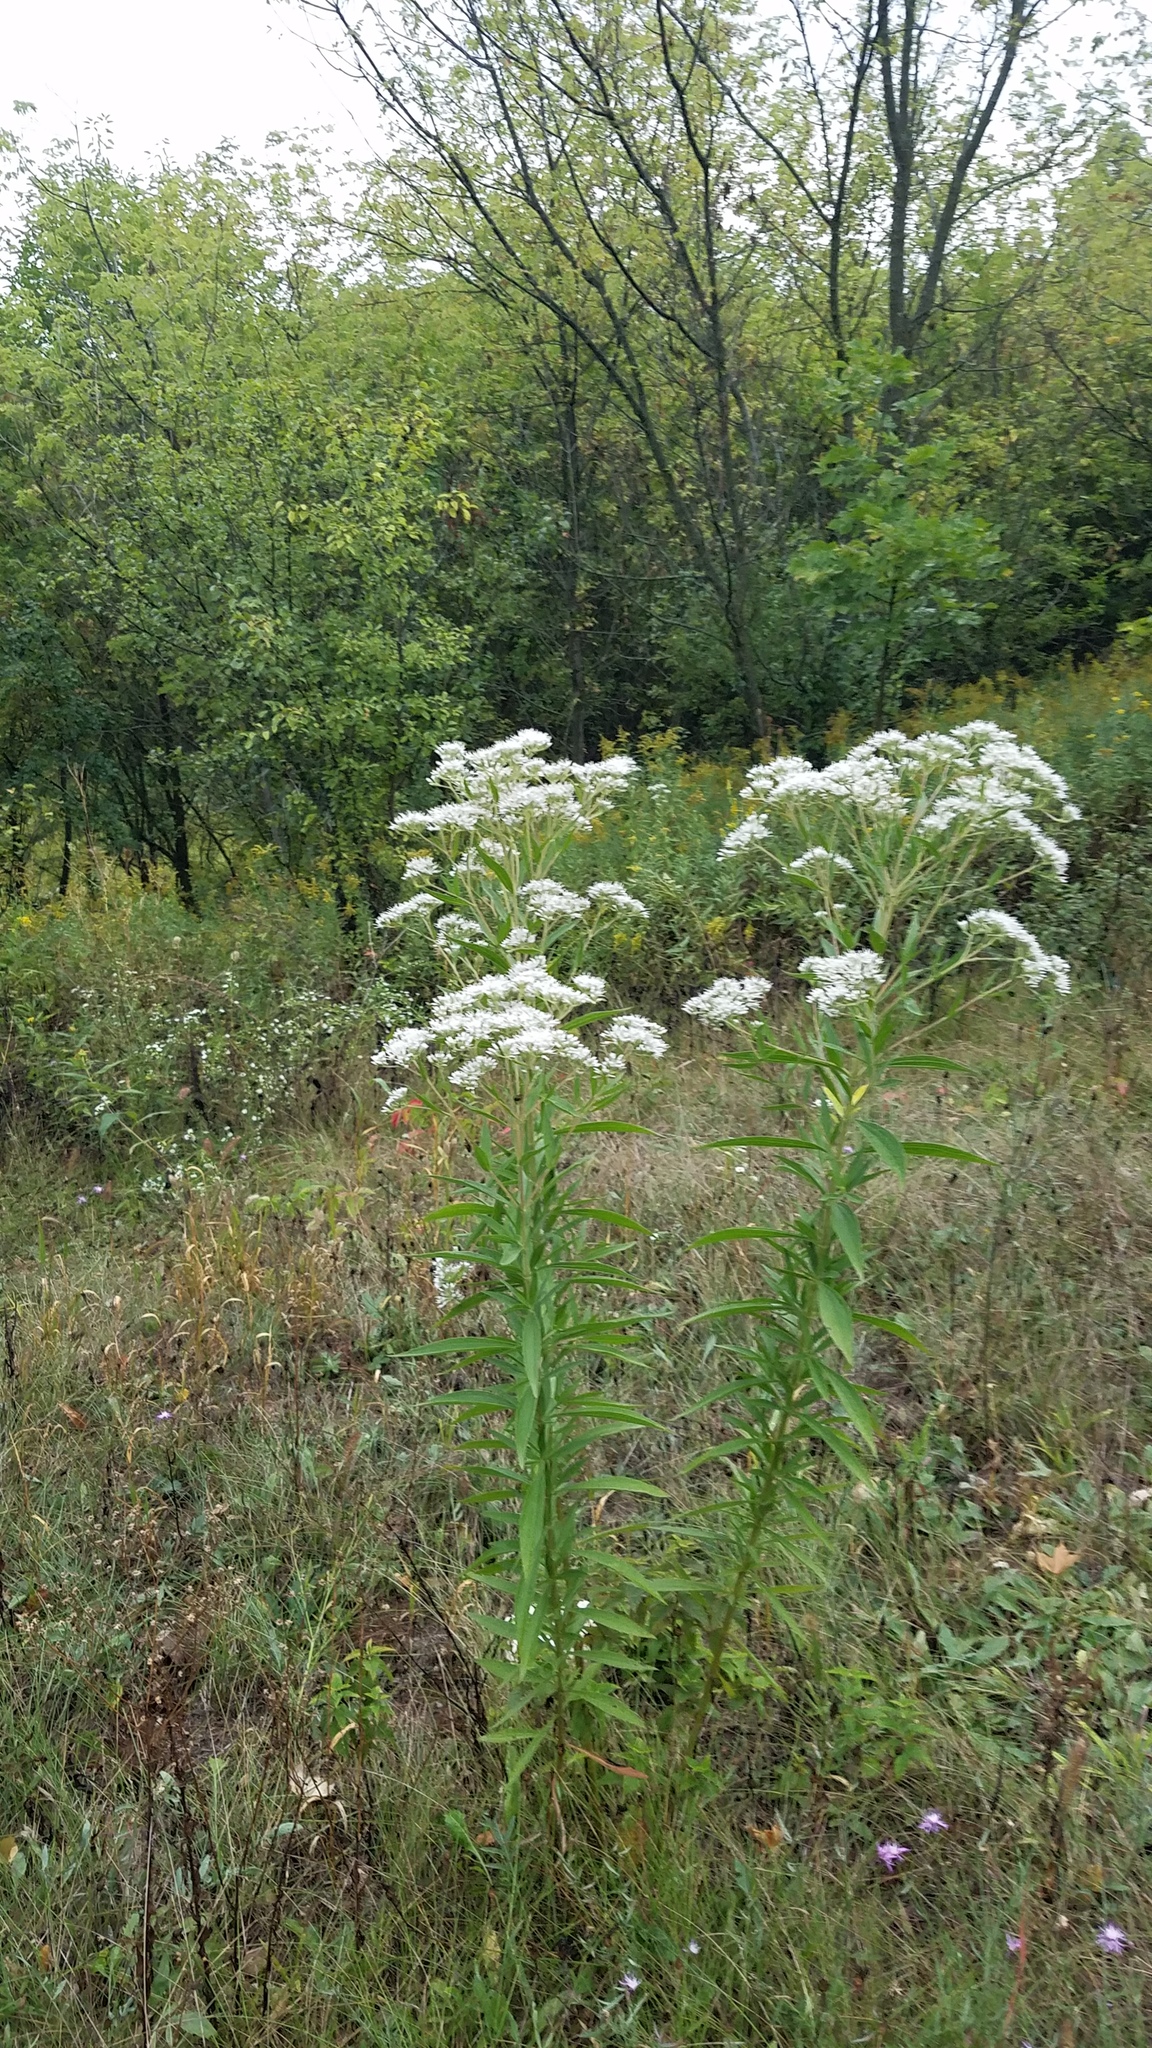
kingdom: Plantae
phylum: Tracheophyta
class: Magnoliopsida
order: Asterales
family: Asteraceae
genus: Eupatorium
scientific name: Eupatorium altissimum
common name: Tall thoroughwort
